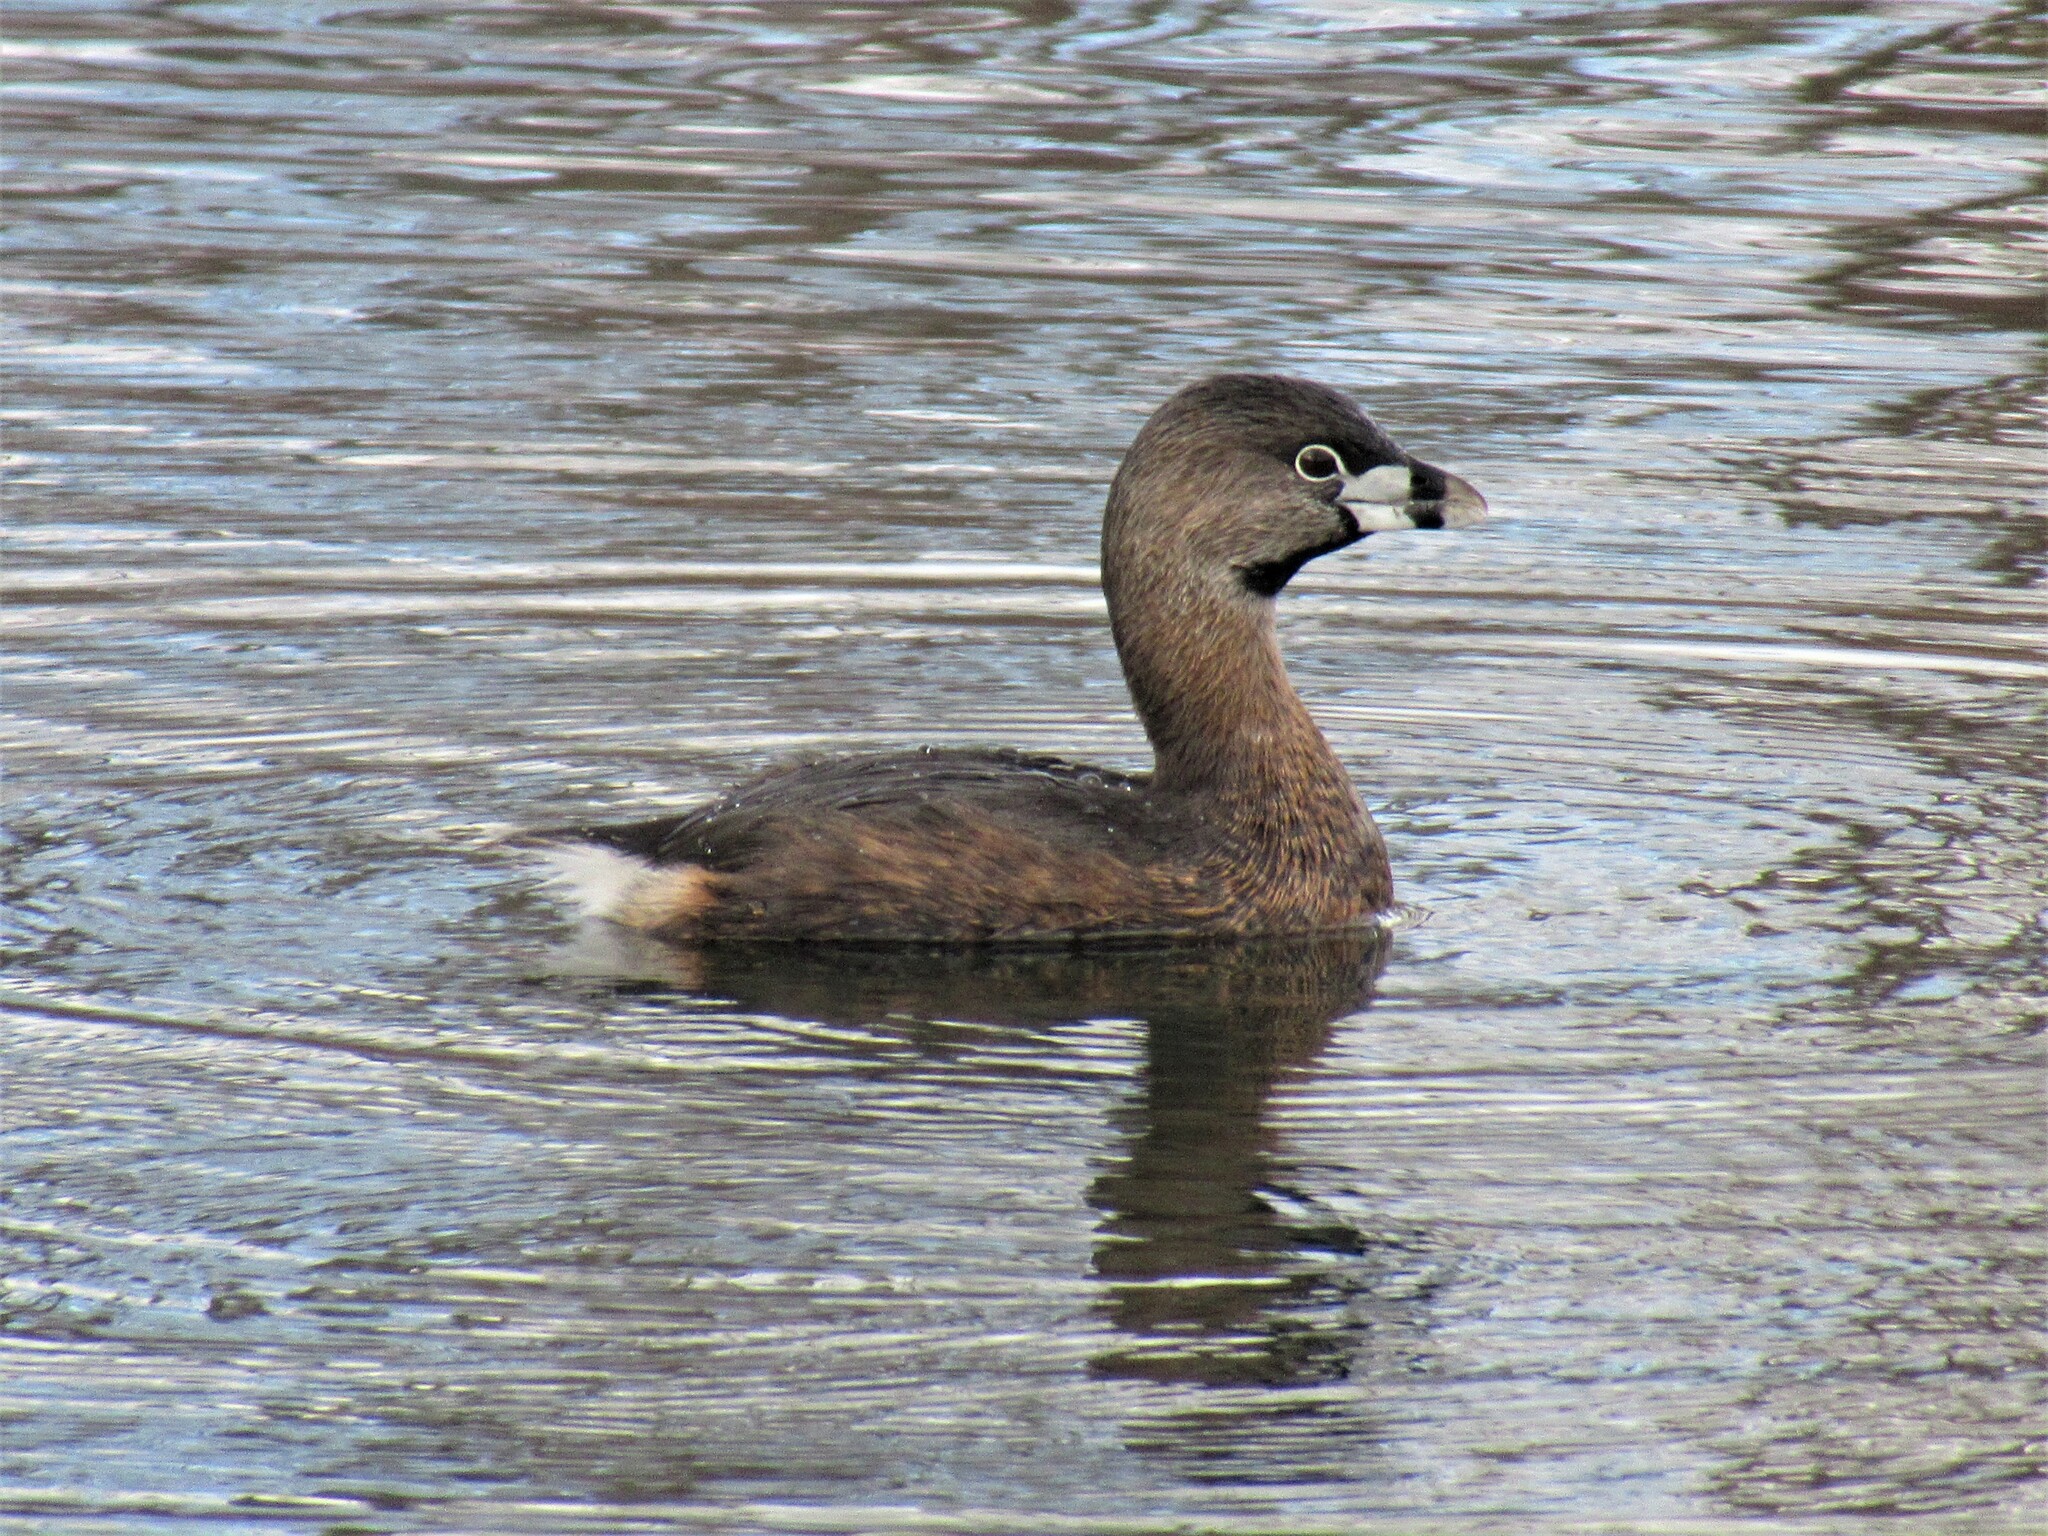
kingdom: Animalia
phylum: Chordata
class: Aves
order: Podicipediformes
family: Podicipedidae
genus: Podilymbus
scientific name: Podilymbus podiceps
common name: Pied-billed grebe
